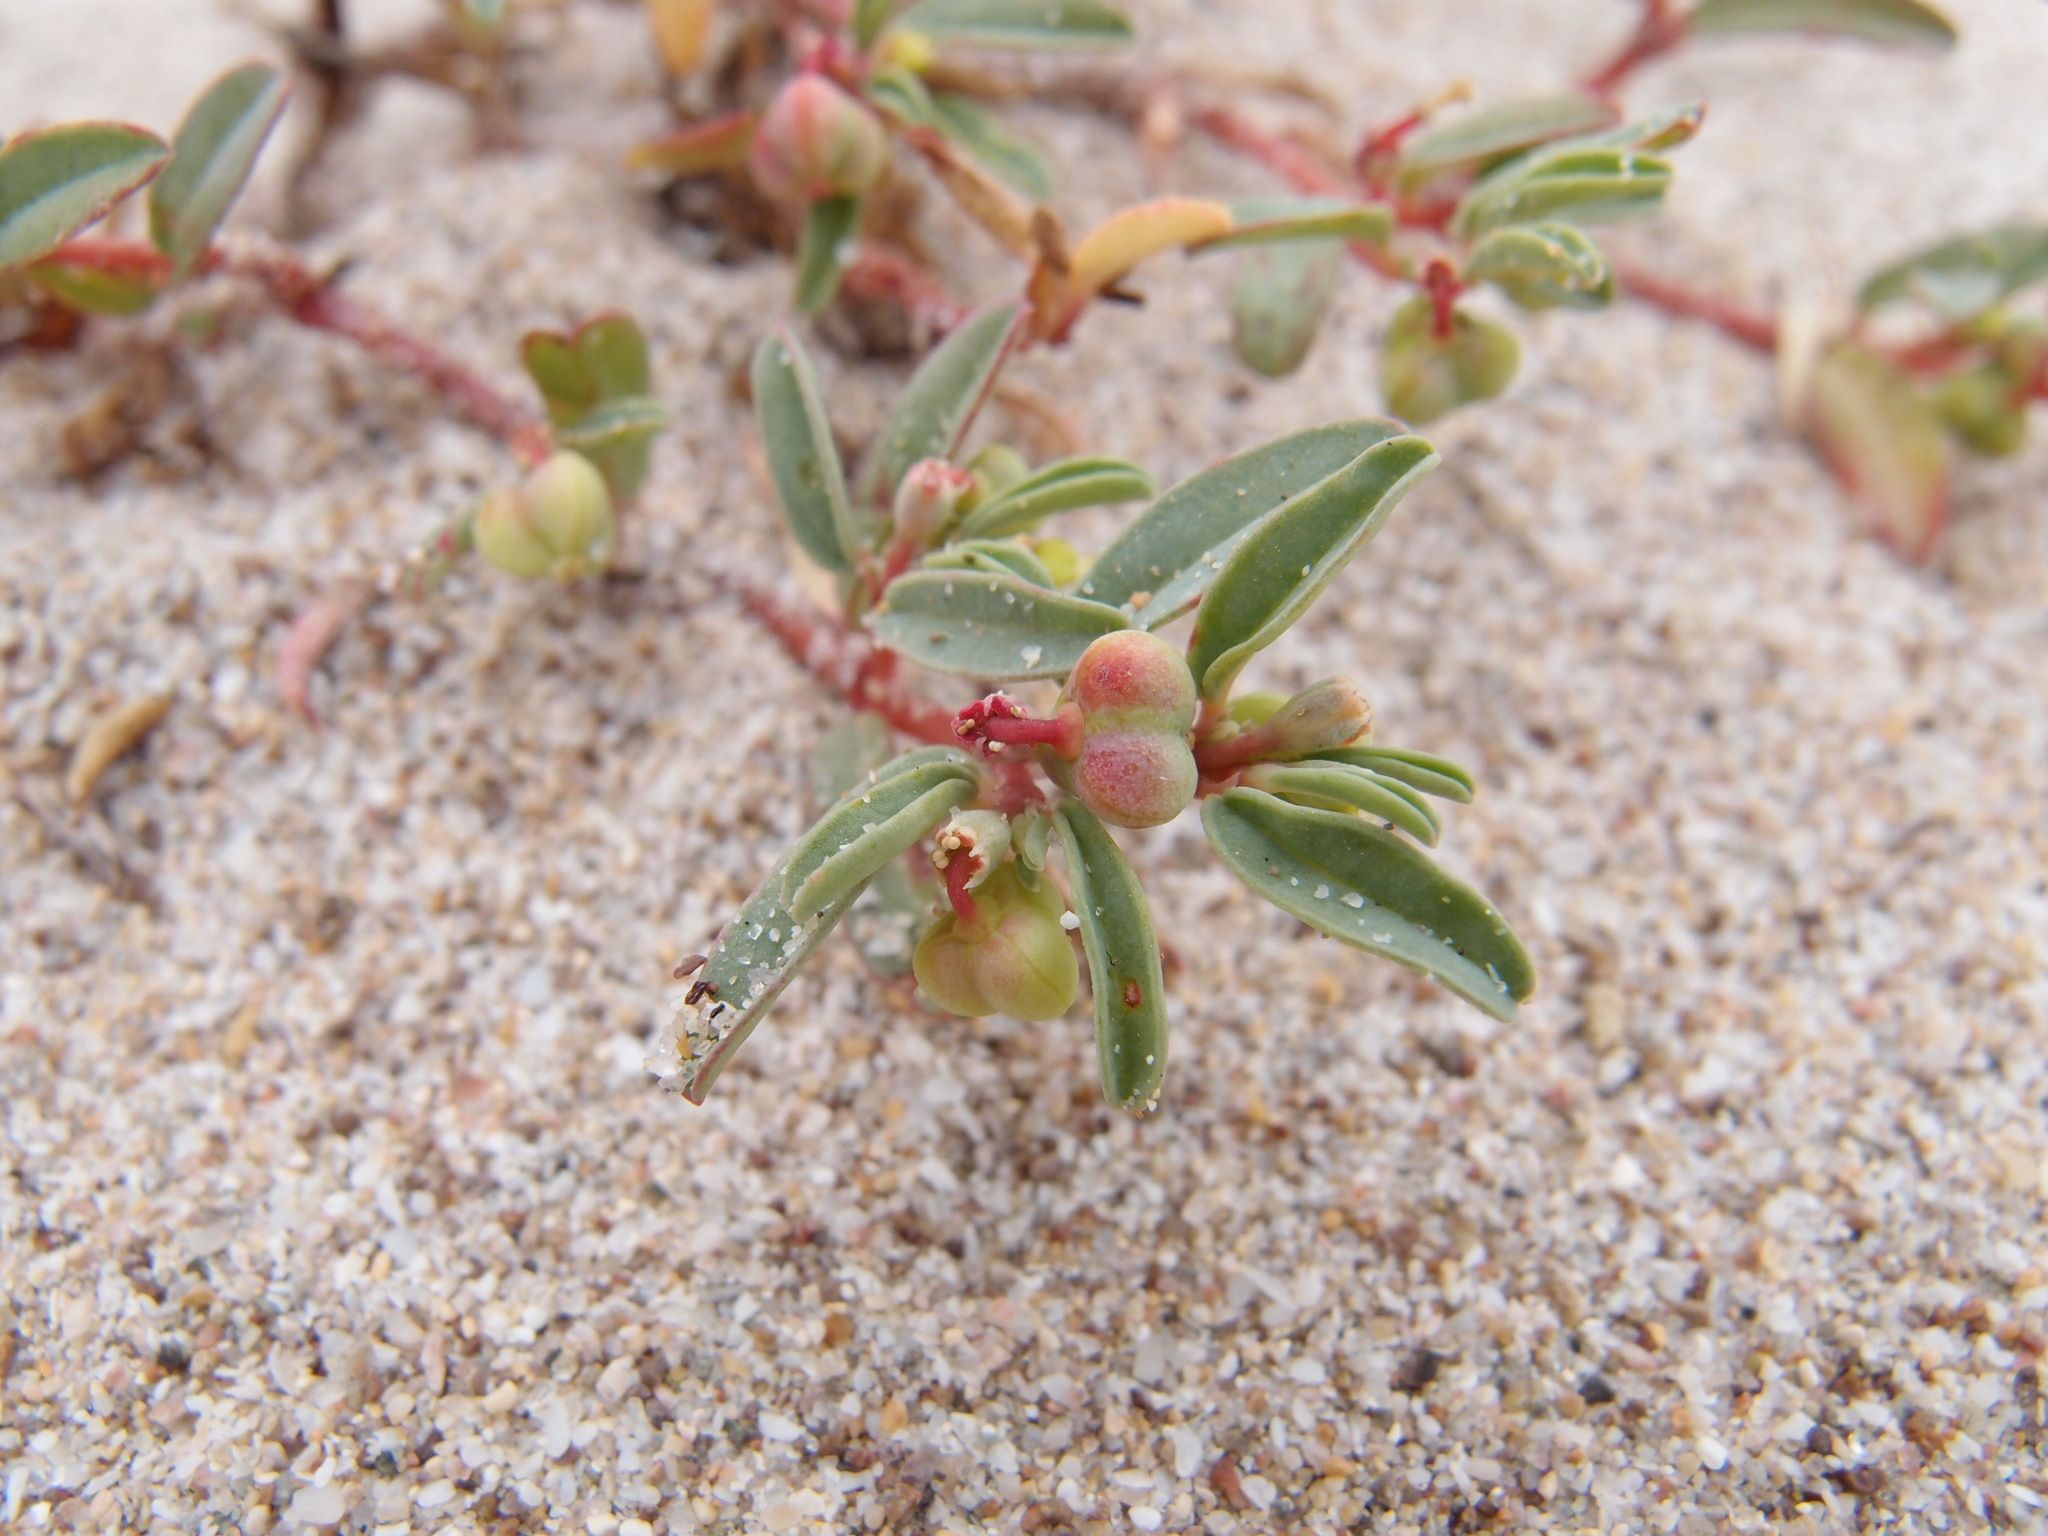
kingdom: Plantae
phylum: Tracheophyta
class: Magnoliopsida
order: Malpighiales
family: Euphorbiaceae
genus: Euphorbia
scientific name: Euphorbia incerta
